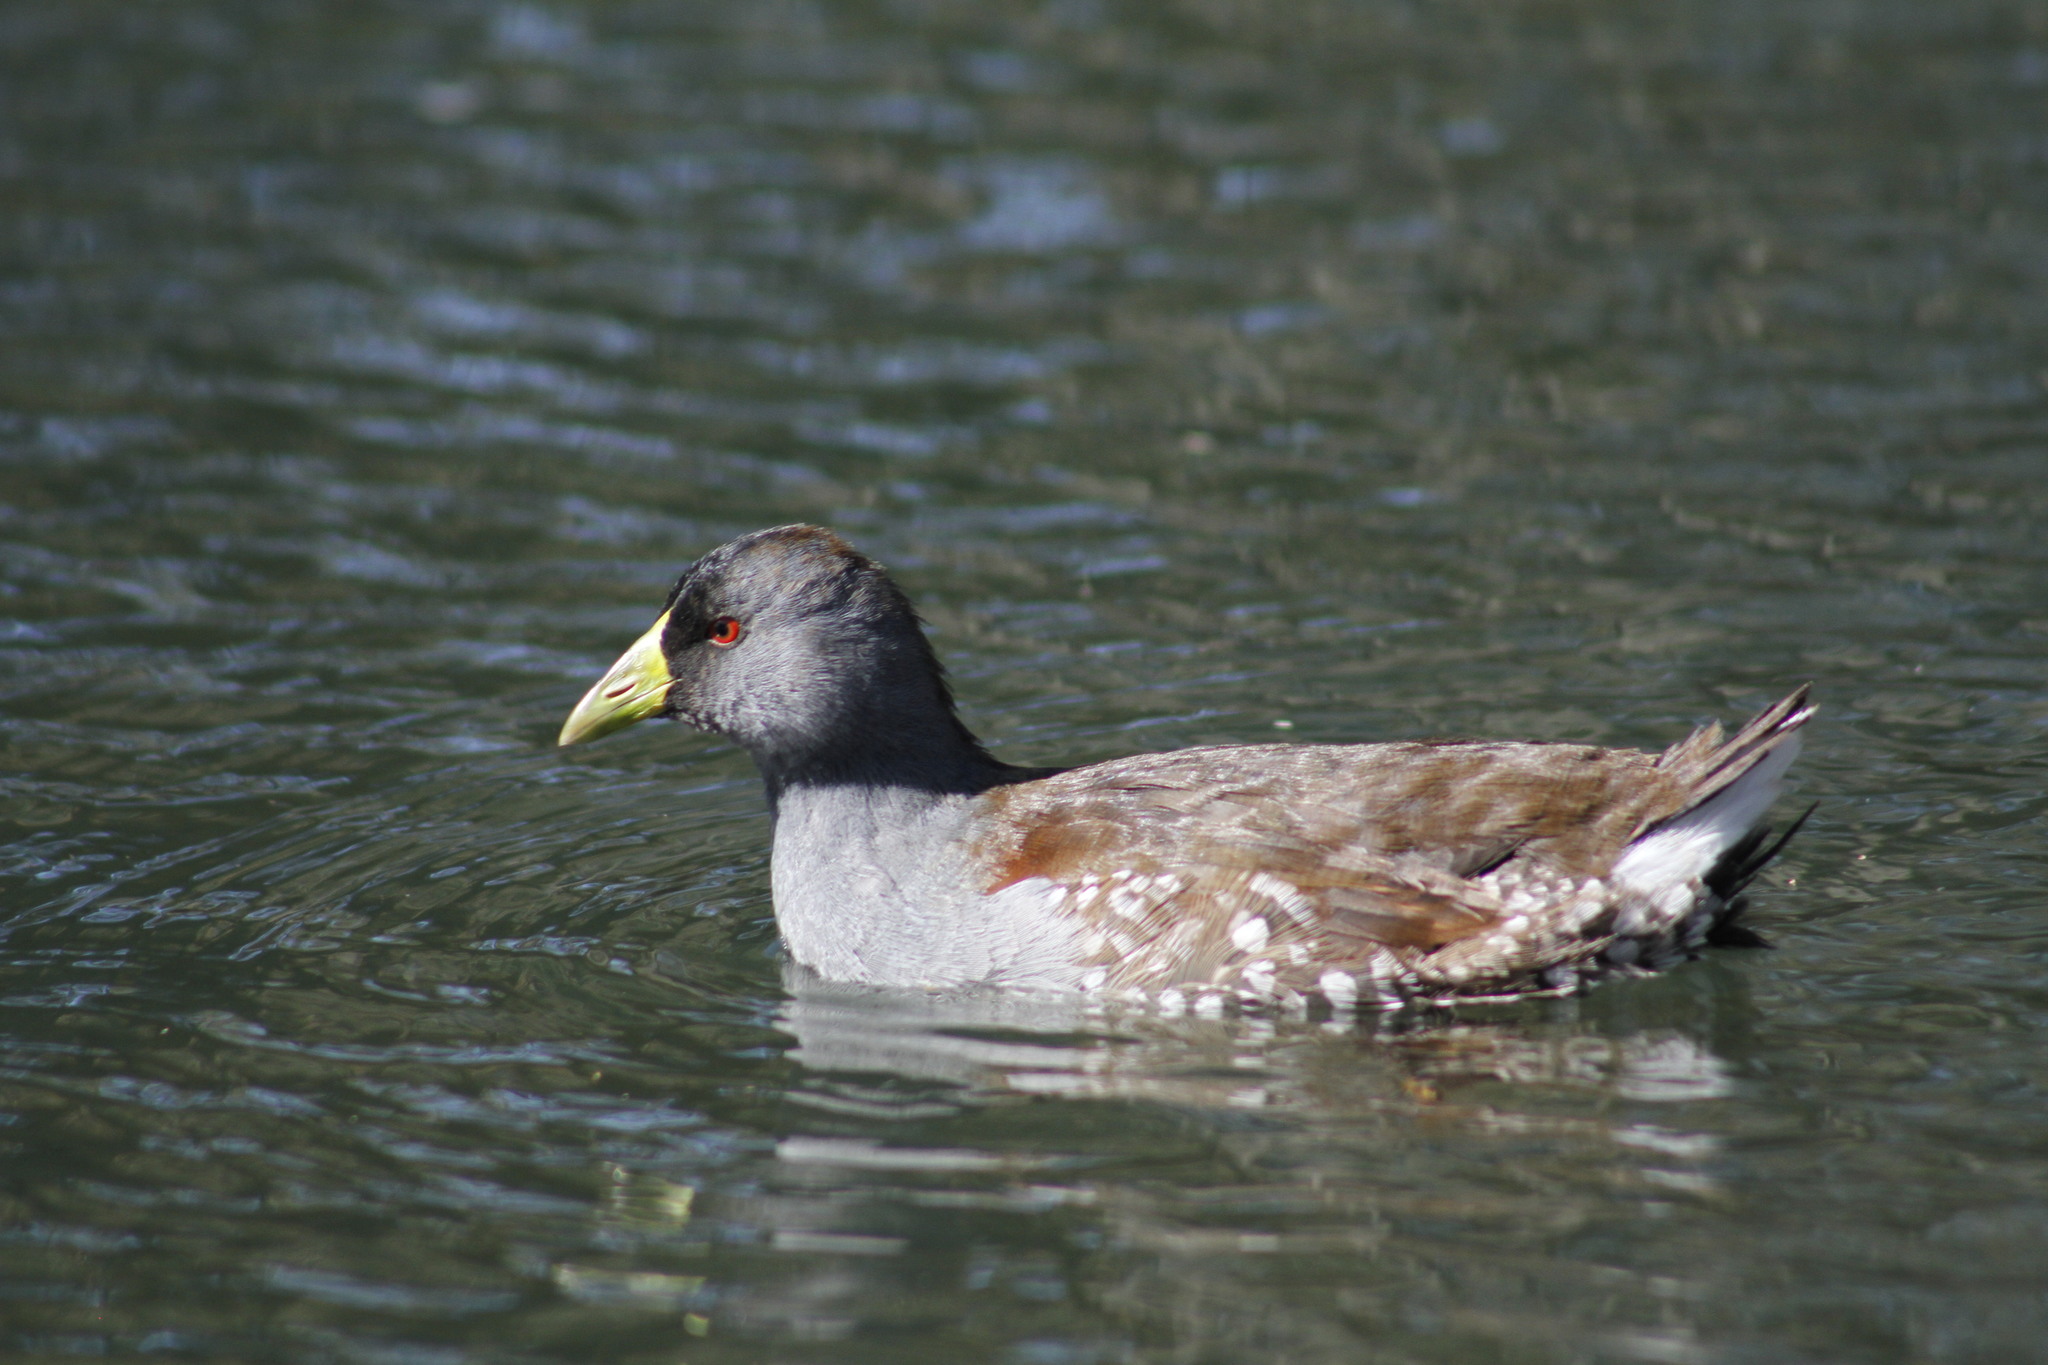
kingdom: Animalia
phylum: Chordata
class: Aves
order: Gruiformes
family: Rallidae
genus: Gallinula
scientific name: Gallinula melanops
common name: Spot-flanked gallinule
